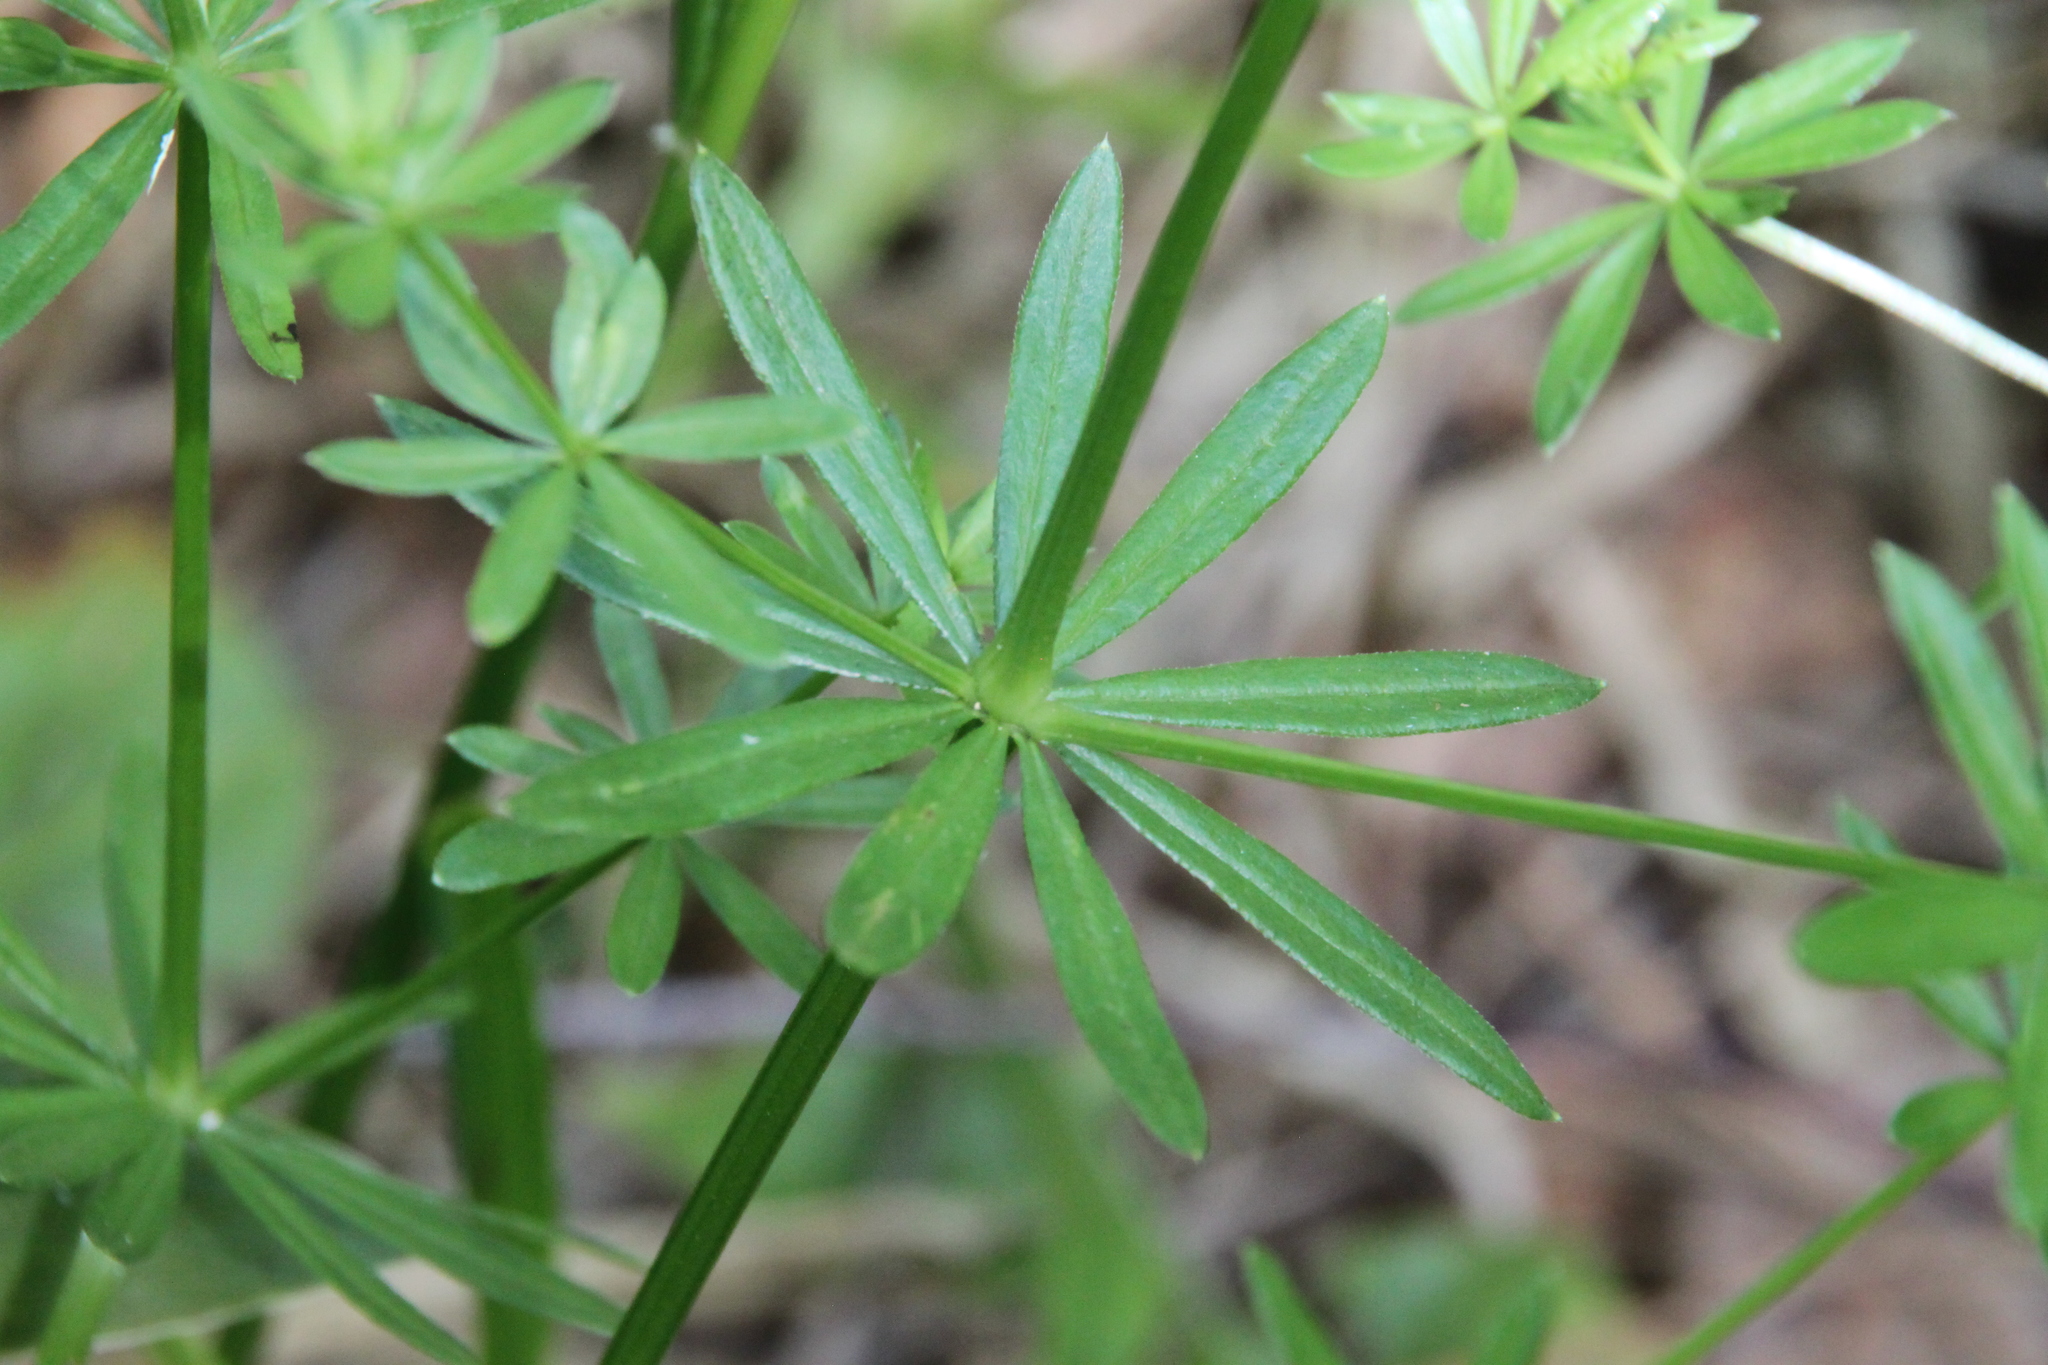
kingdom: Plantae
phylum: Tracheophyta
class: Magnoliopsida
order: Gentianales
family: Rubiaceae
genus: Galium
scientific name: Galium mollugo
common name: Hedge bedstraw
